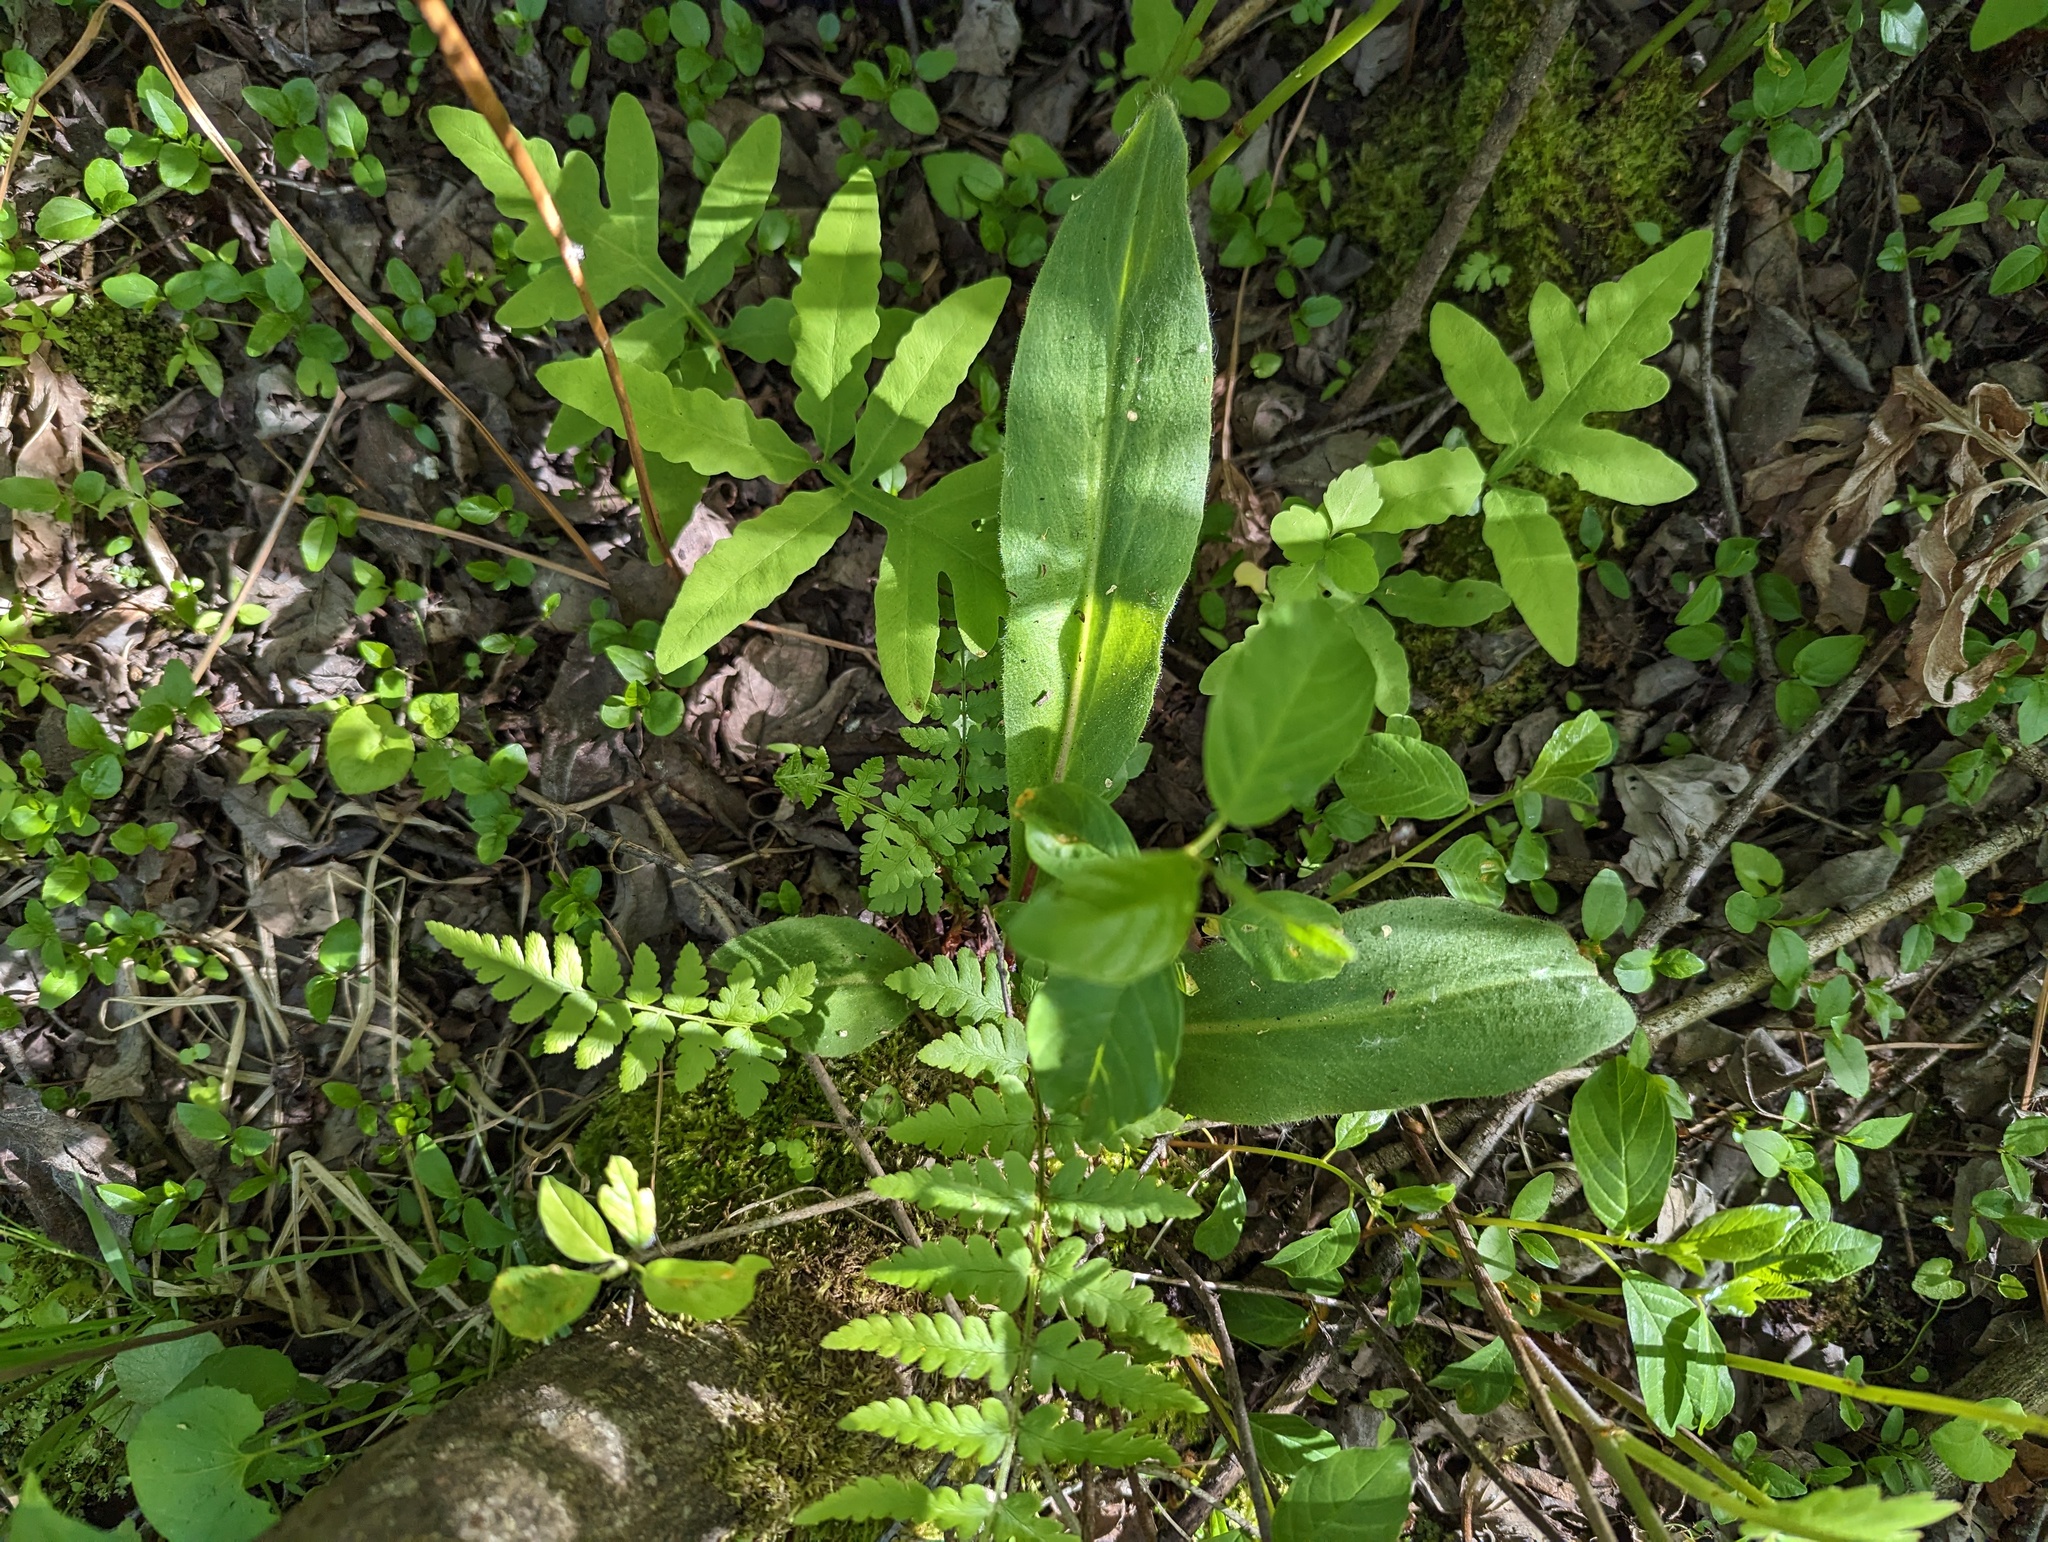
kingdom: Plantae
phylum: Tracheophyta
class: Magnoliopsida
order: Saxifragales
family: Saxifragaceae
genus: Micranthes
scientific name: Micranthes pensylvanica
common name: Marsh saxifrage
